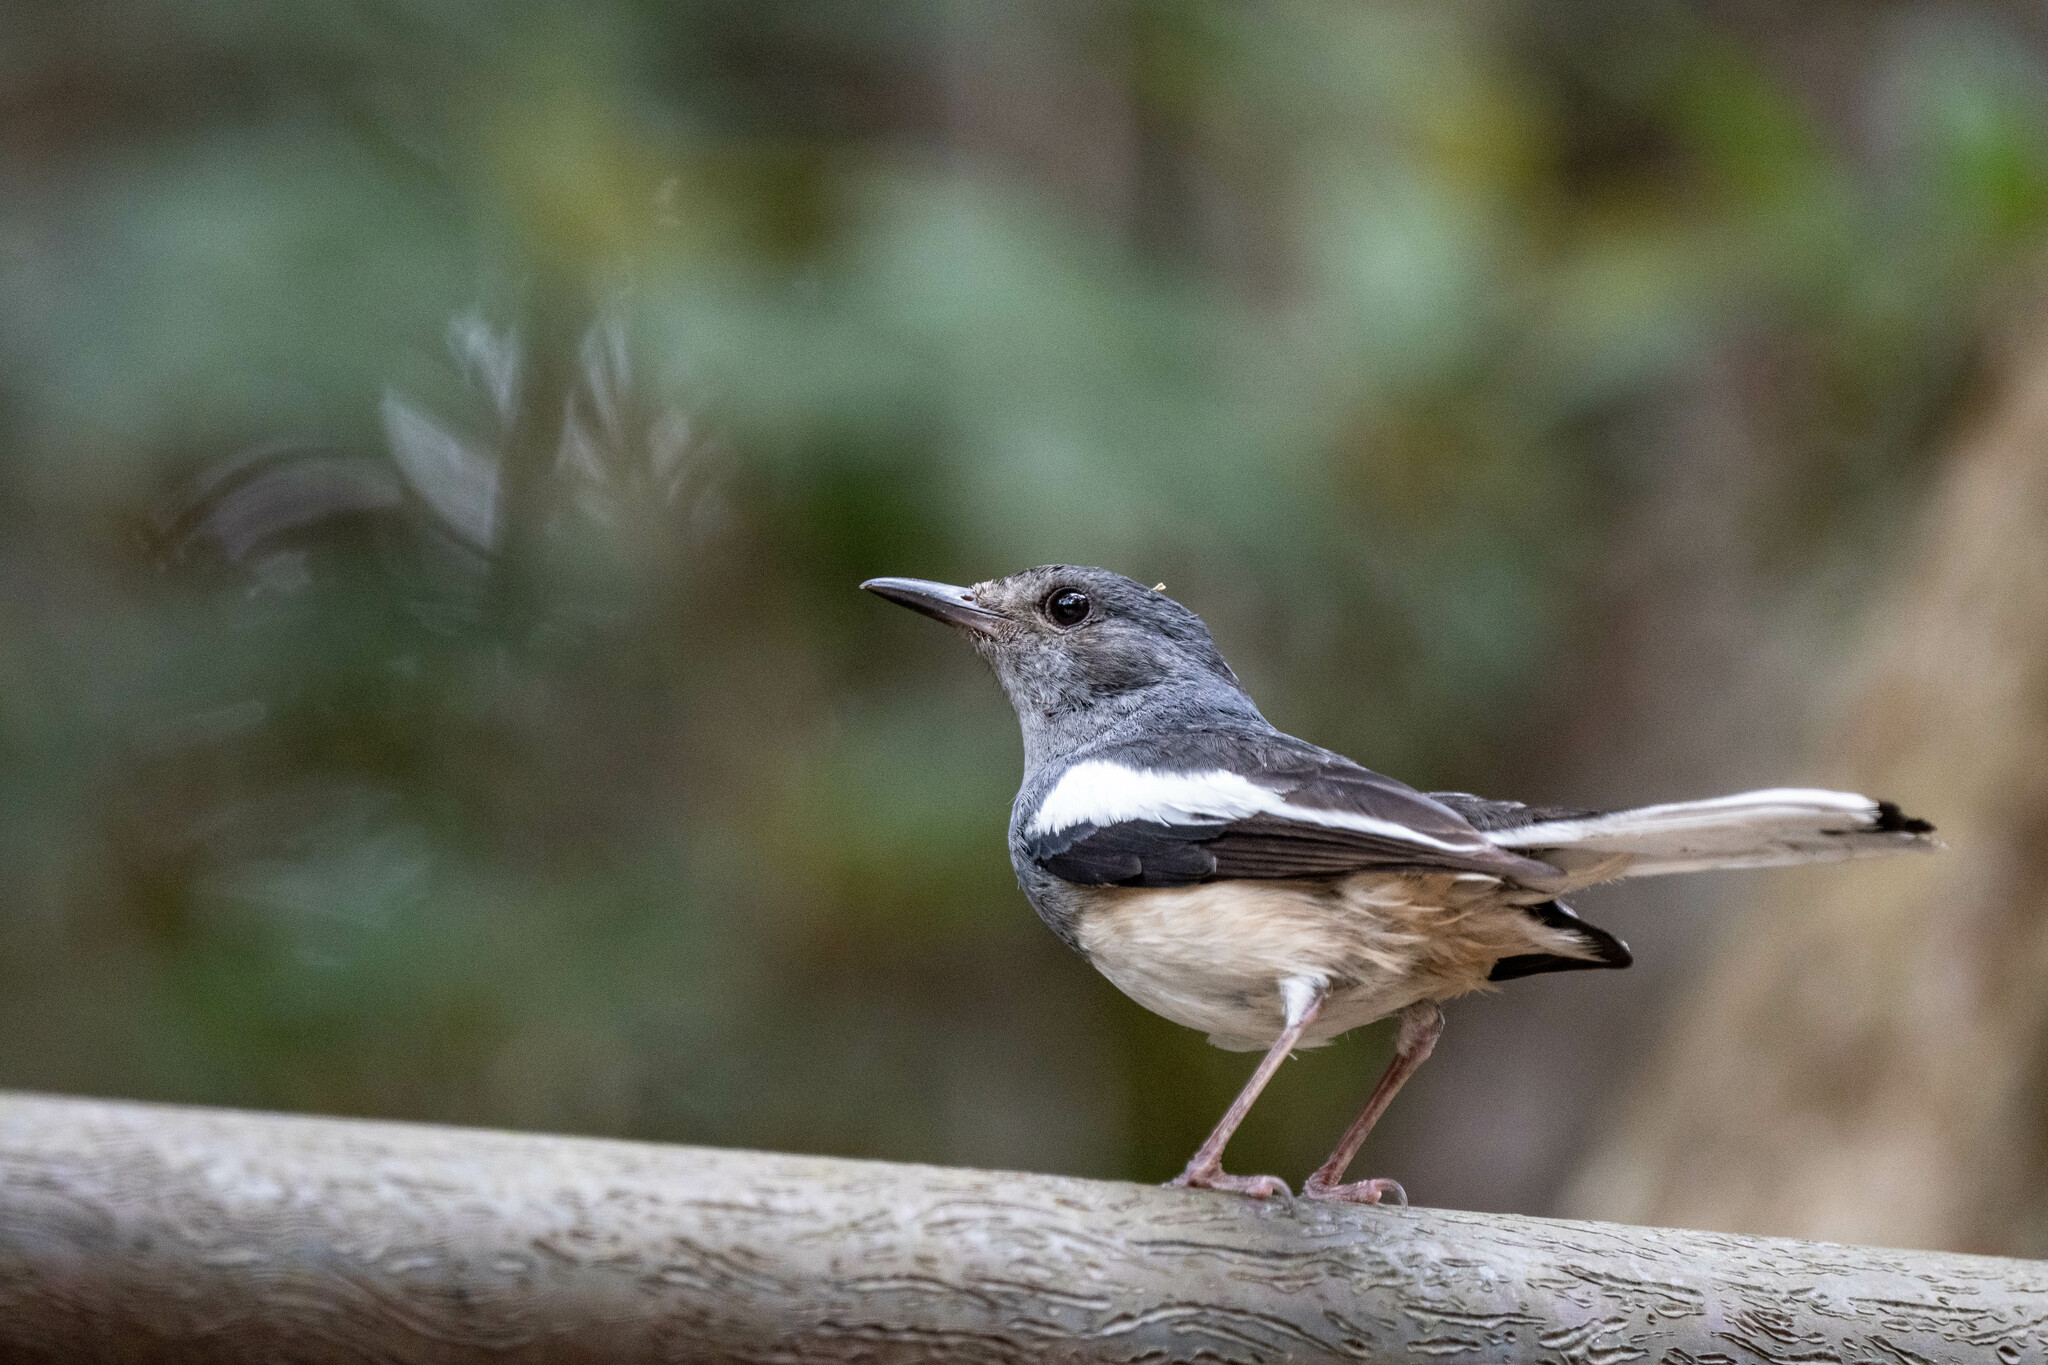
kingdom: Animalia
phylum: Chordata
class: Aves
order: Passeriformes
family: Muscicapidae
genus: Copsychus
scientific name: Copsychus saularis
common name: Oriental magpie-robin
